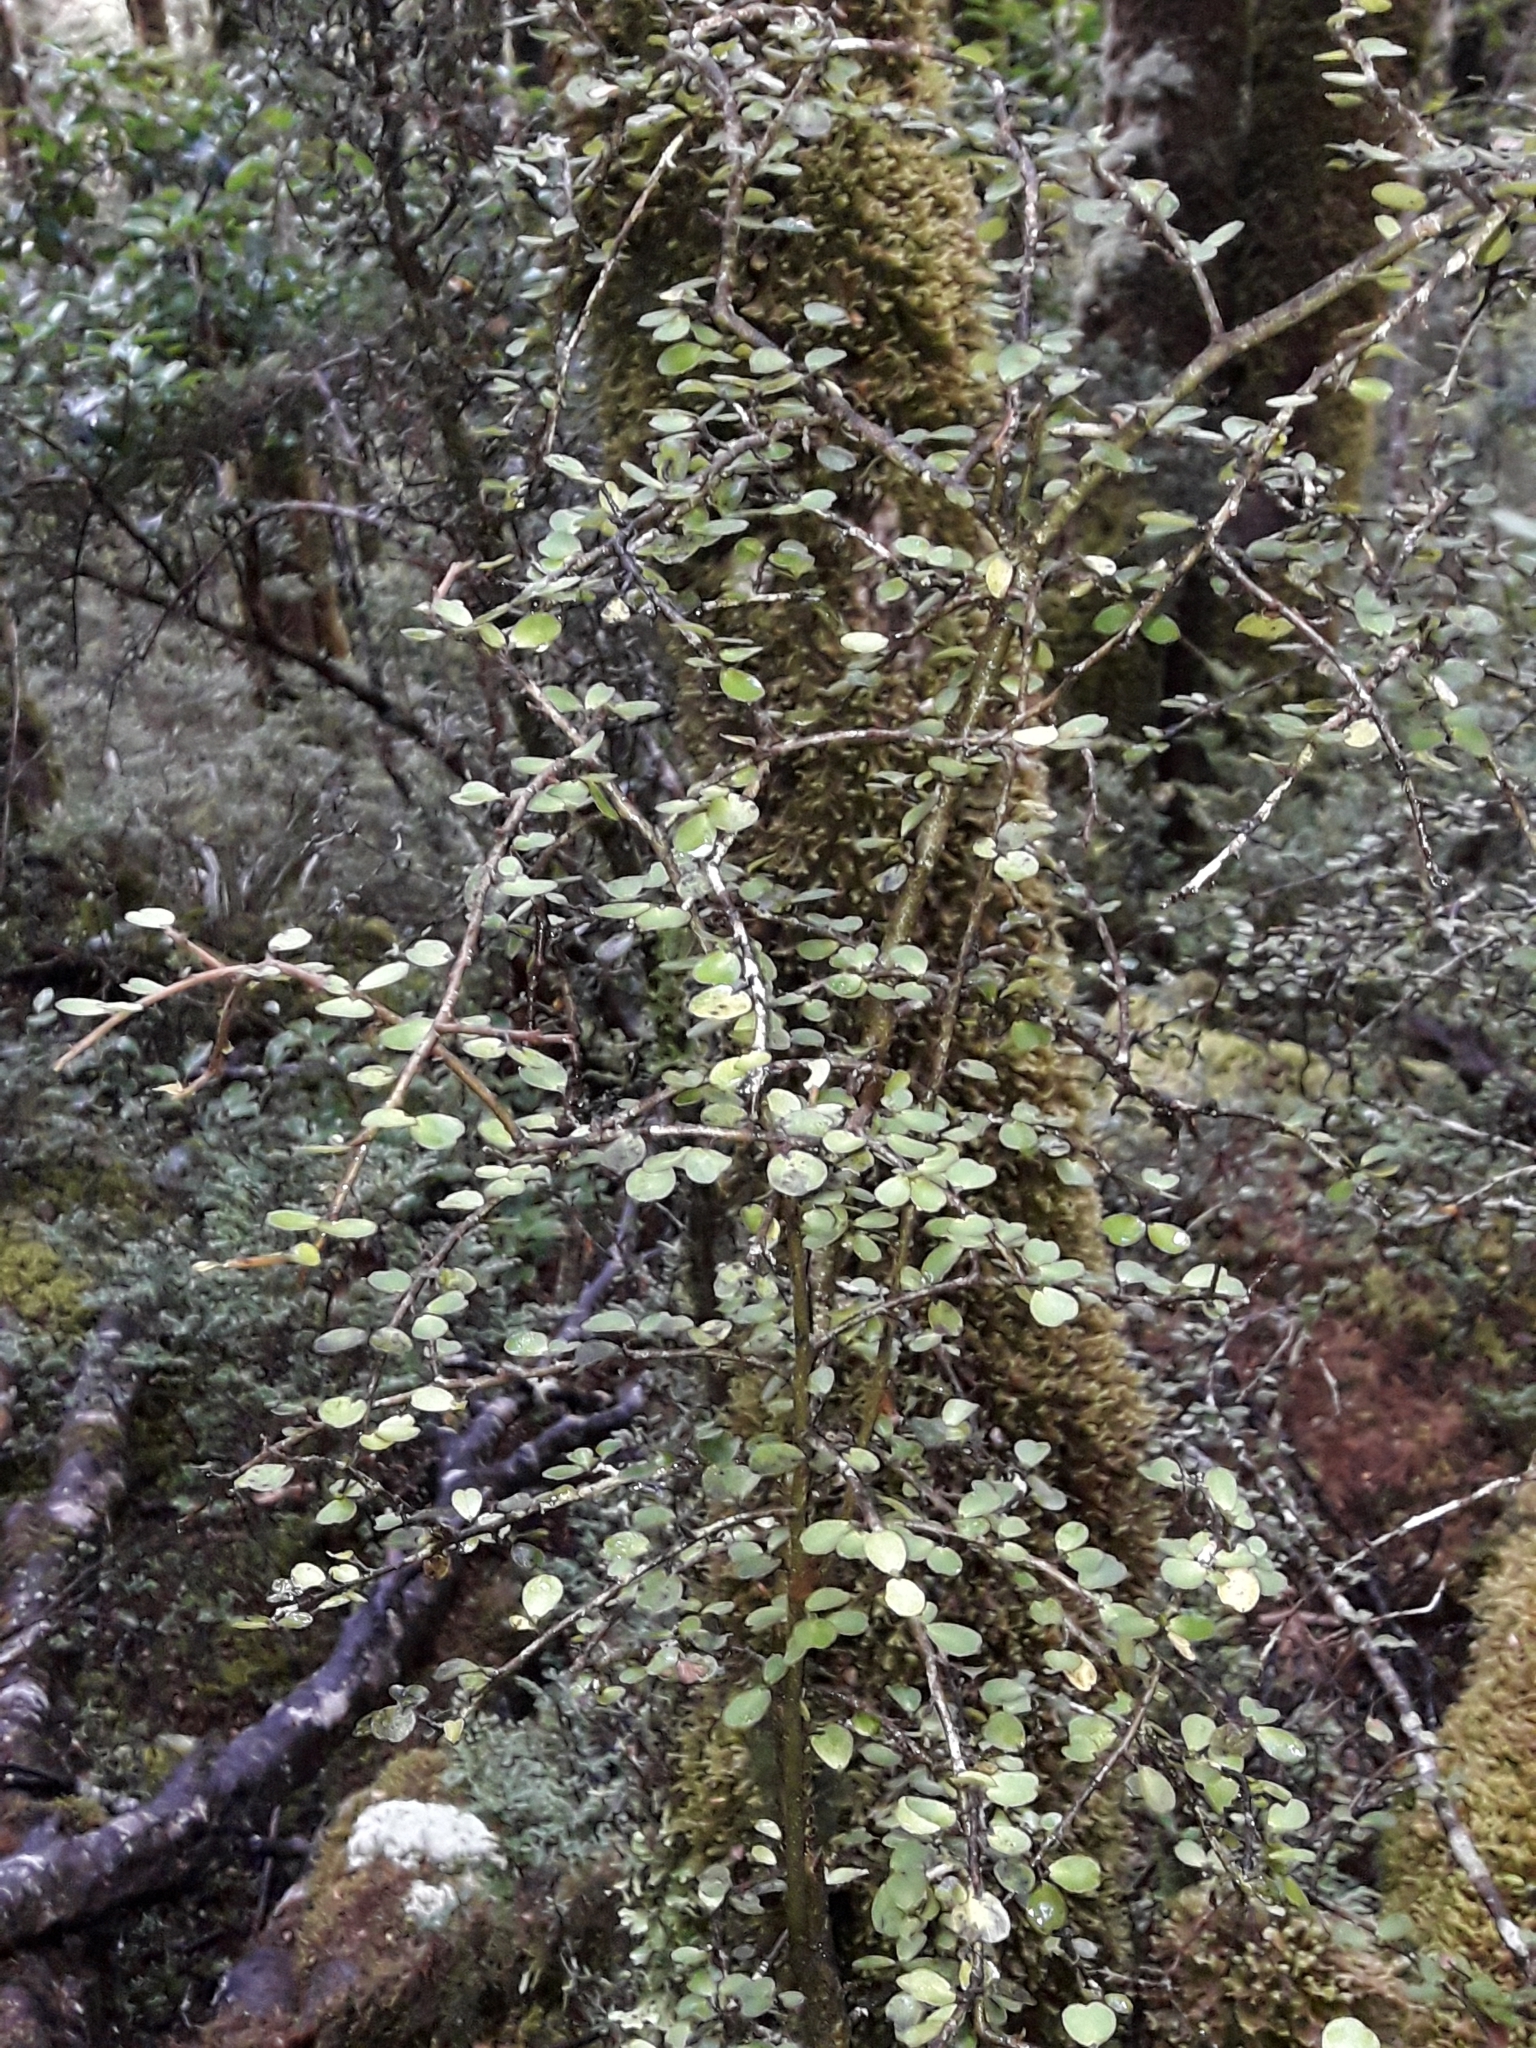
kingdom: Plantae
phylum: Tracheophyta
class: Magnoliopsida
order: Ericales
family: Primulaceae
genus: Myrsine
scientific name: Myrsine divaricata
